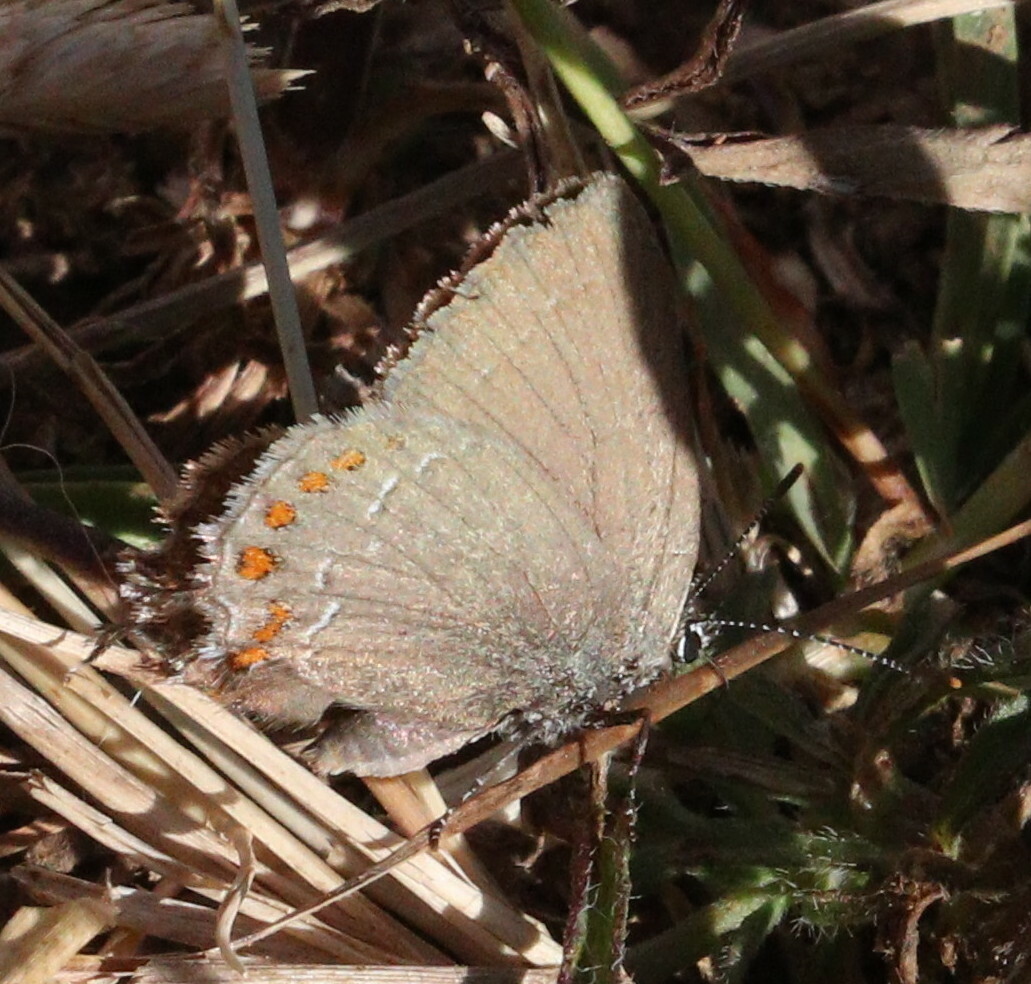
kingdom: Animalia
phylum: Arthropoda
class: Insecta
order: Lepidoptera
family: Lycaenidae
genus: Fixsenia
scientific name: Fixsenia esculi
